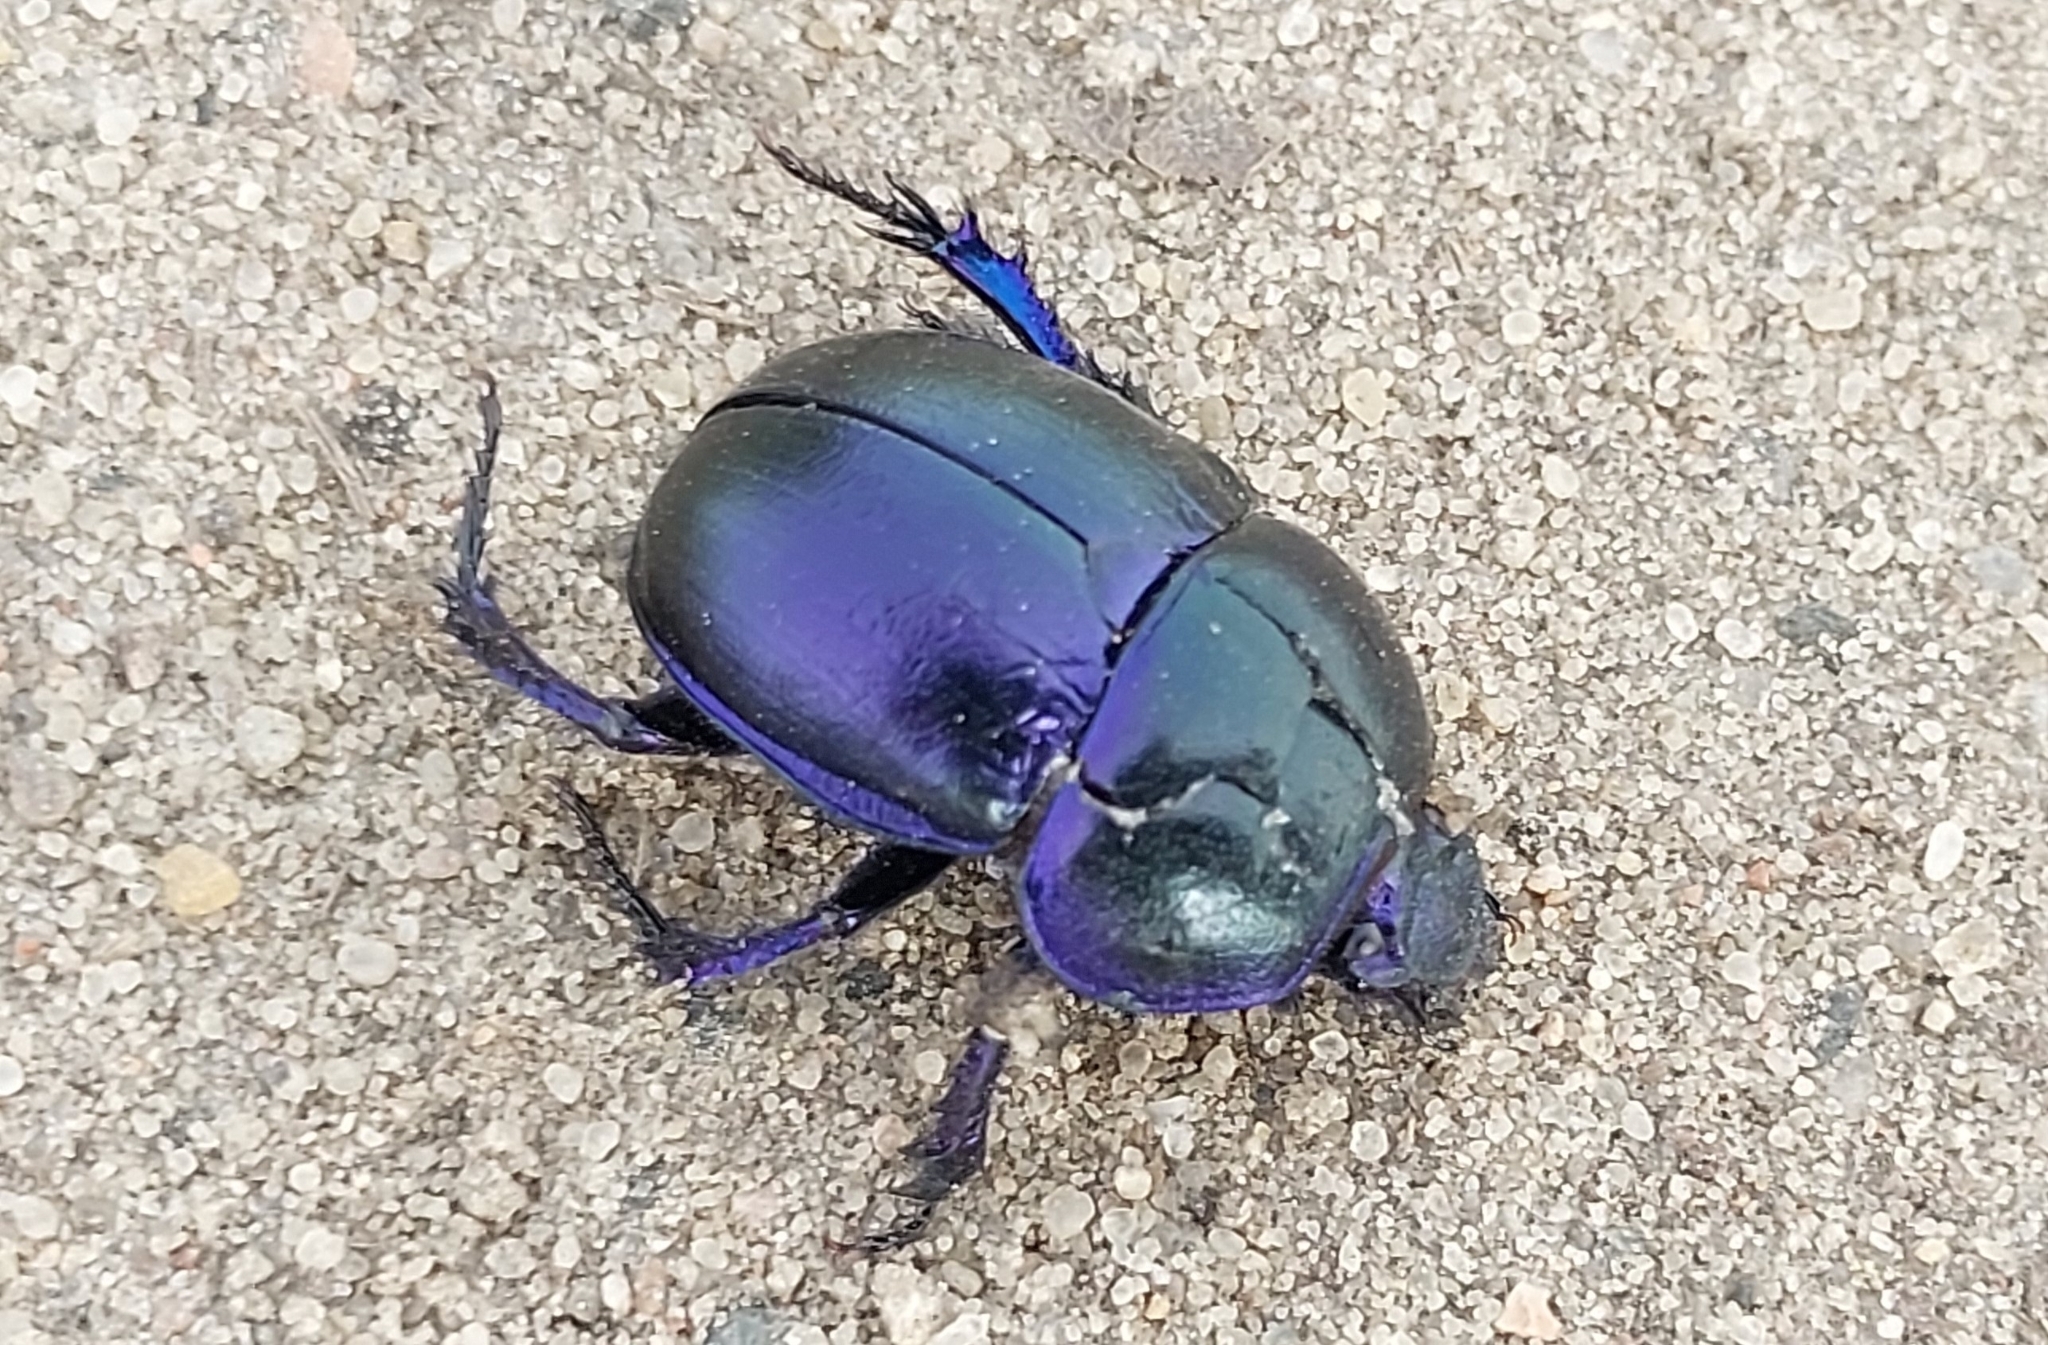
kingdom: Animalia
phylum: Arthropoda
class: Insecta
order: Coleoptera
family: Geotrupidae
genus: Trypocopris
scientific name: Trypocopris vernalis
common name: Spring dumbledor
